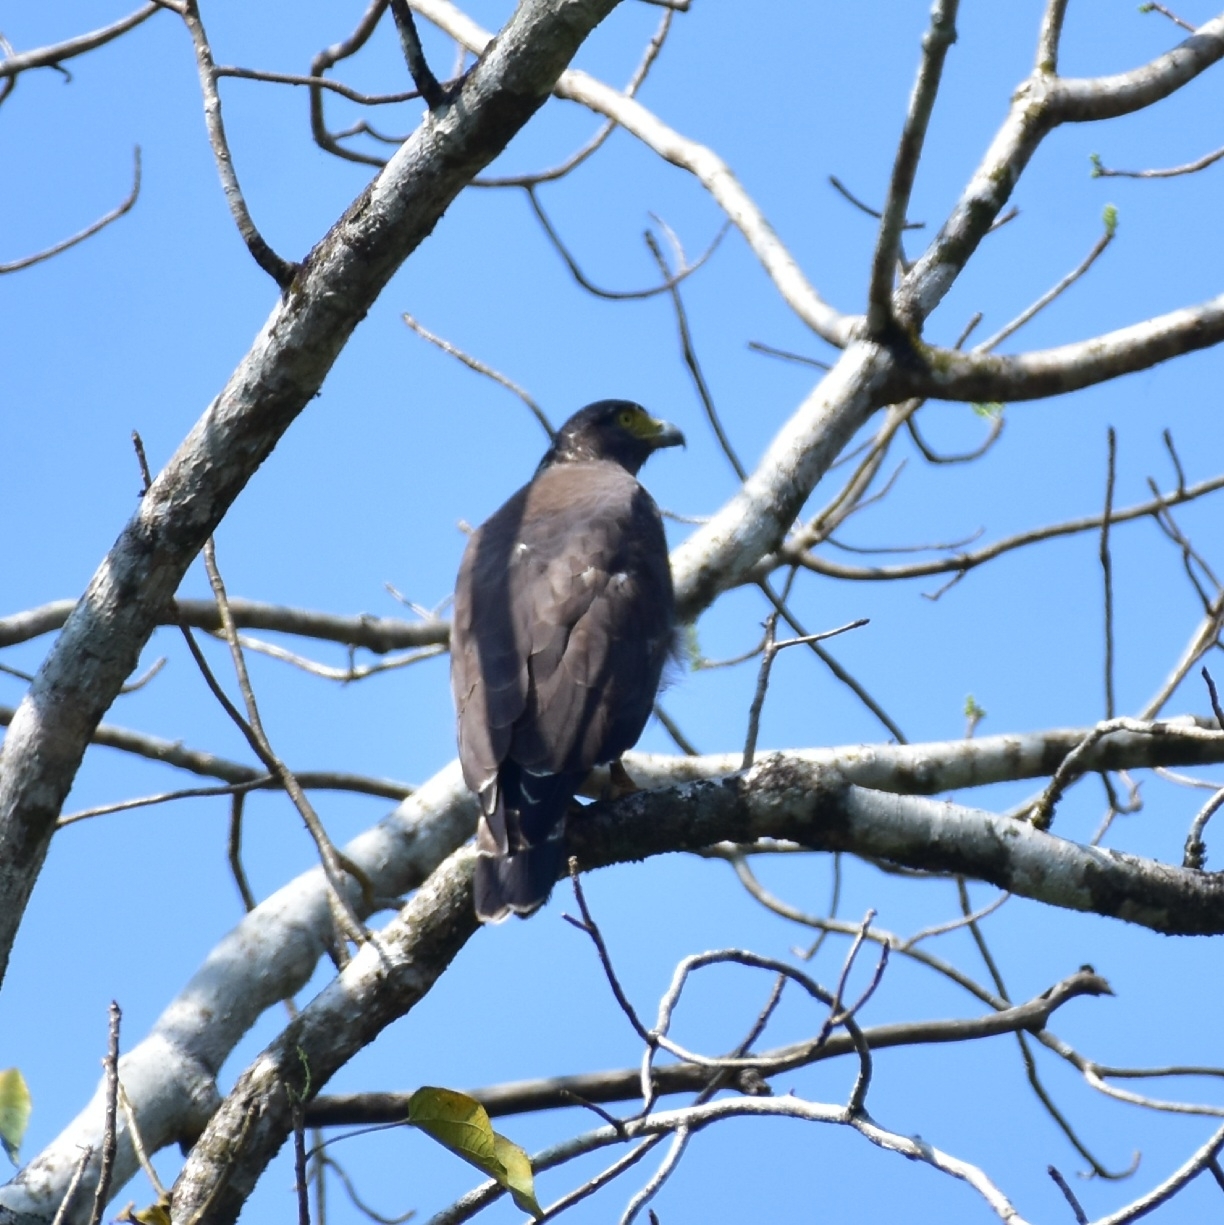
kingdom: Animalia
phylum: Chordata
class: Aves
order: Accipitriformes
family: Accipitridae
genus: Spilornis
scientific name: Spilornis cheela
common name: Crested serpent eagle
